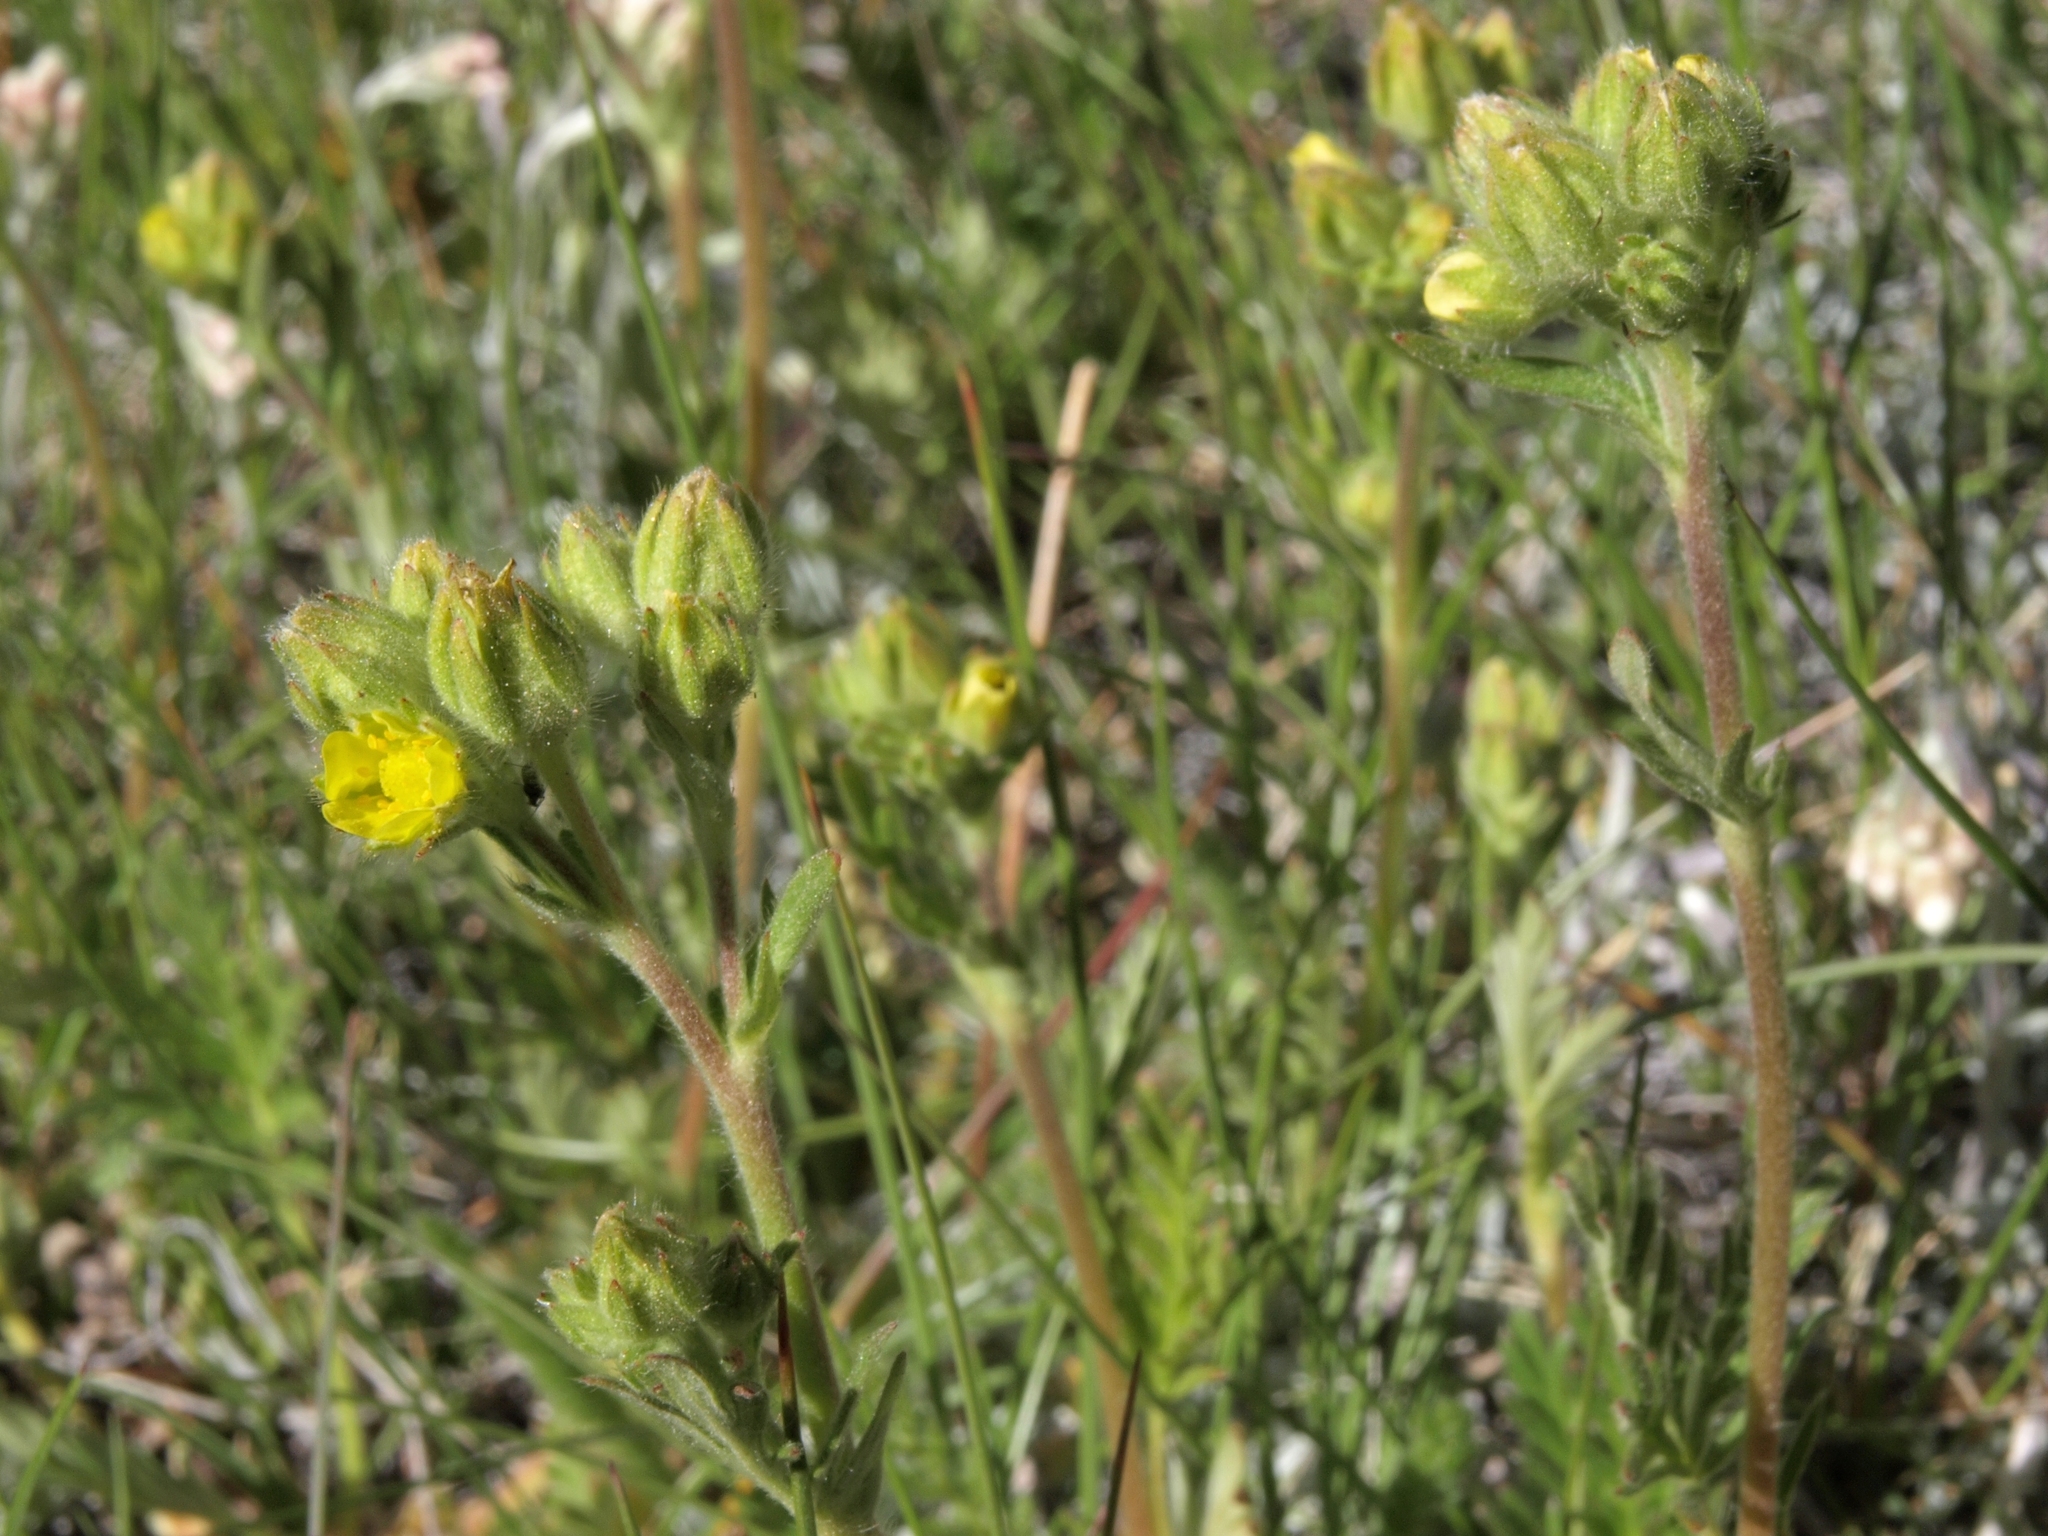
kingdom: Plantae
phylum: Tracheophyta
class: Magnoliopsida
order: Rosales
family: Rosaceae
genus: Potentilla
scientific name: Potentilla jepsonii
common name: Jepson's cinquefoil
